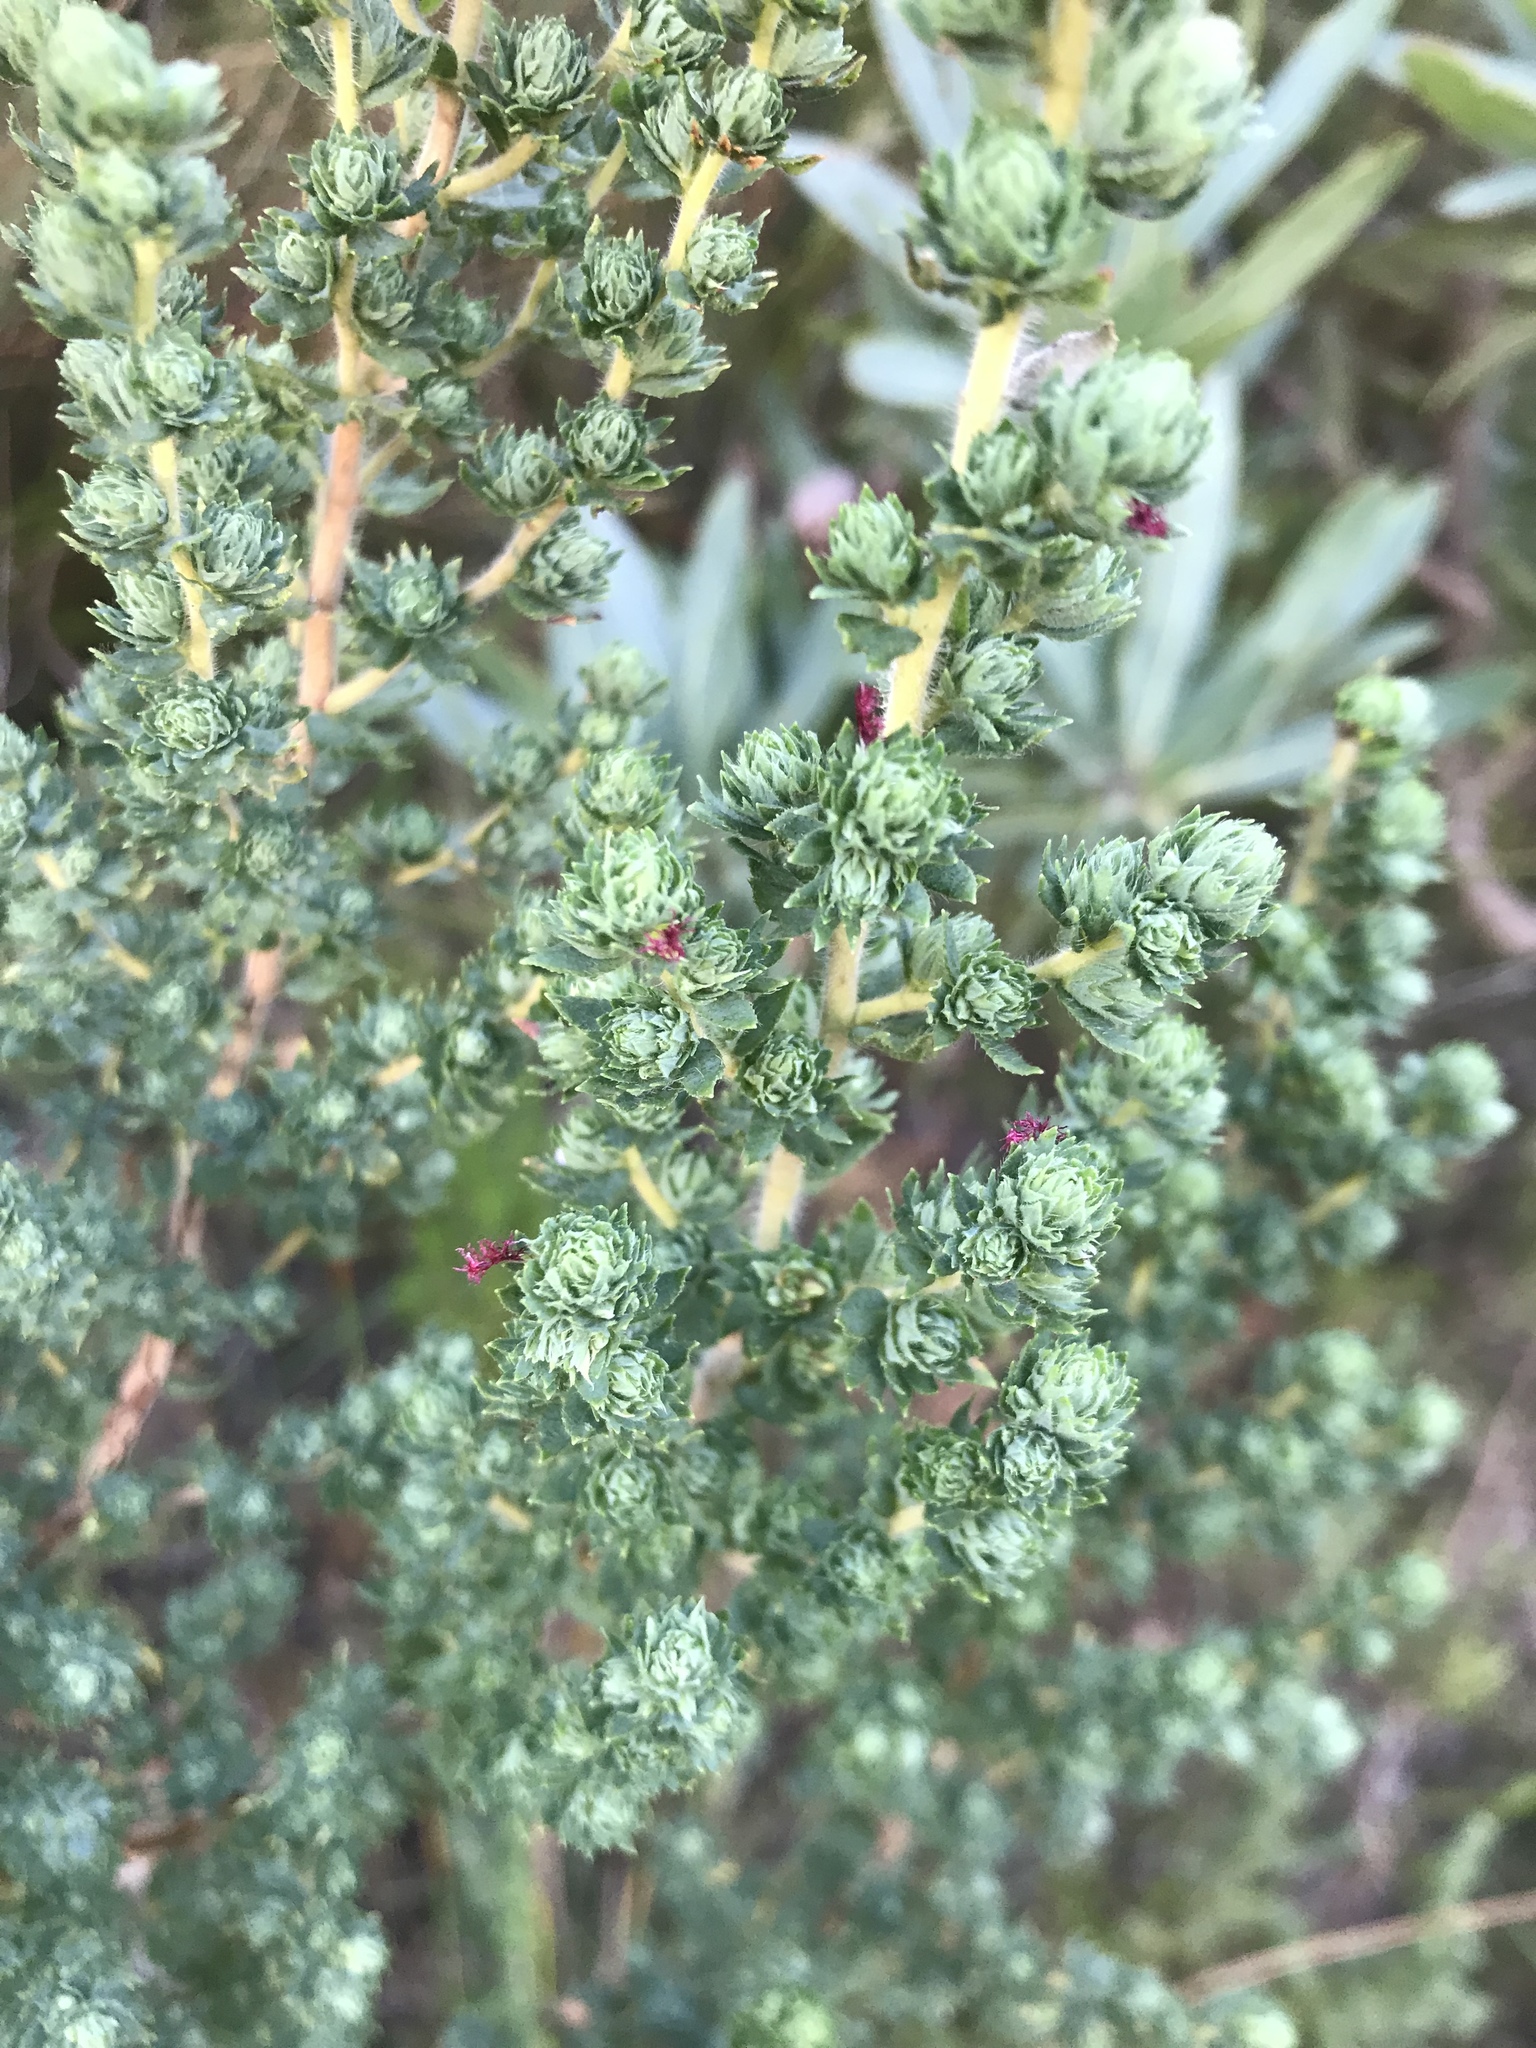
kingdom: Plantae
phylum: Tracheophyta
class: Magnoliopsida
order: Rosales
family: Rosaceae
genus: Cliffortia
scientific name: Cliffortia polygonifolia
